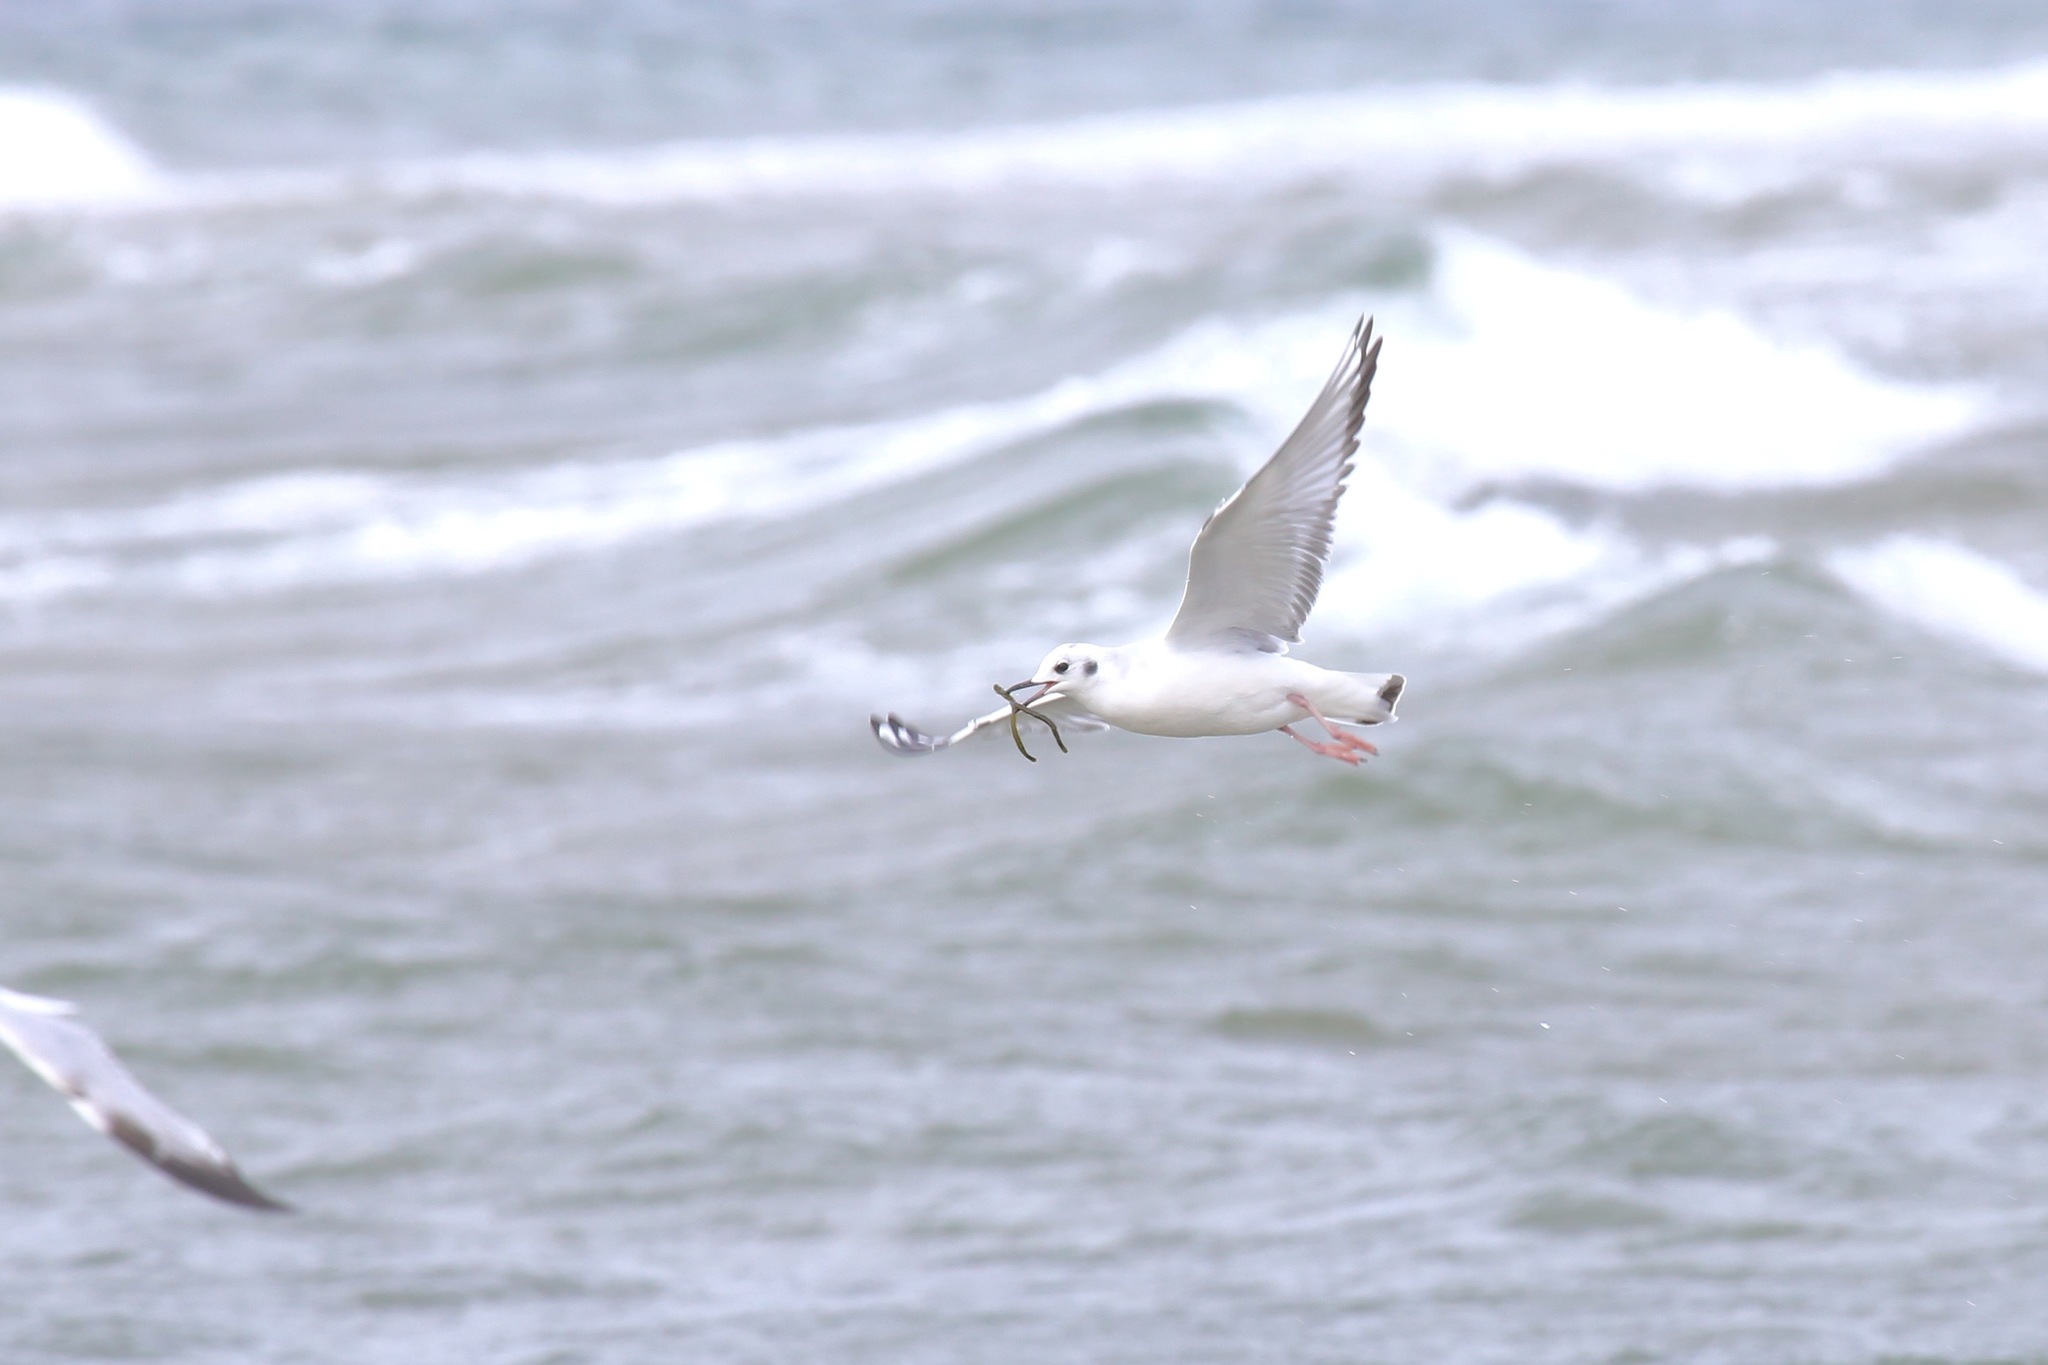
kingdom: Animalia
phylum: Chordata
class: Aves
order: Charadriiformes
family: Laridae
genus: Chroicocephalus
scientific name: Chroicocephalus philadelphia
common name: Bonaparte's gull
